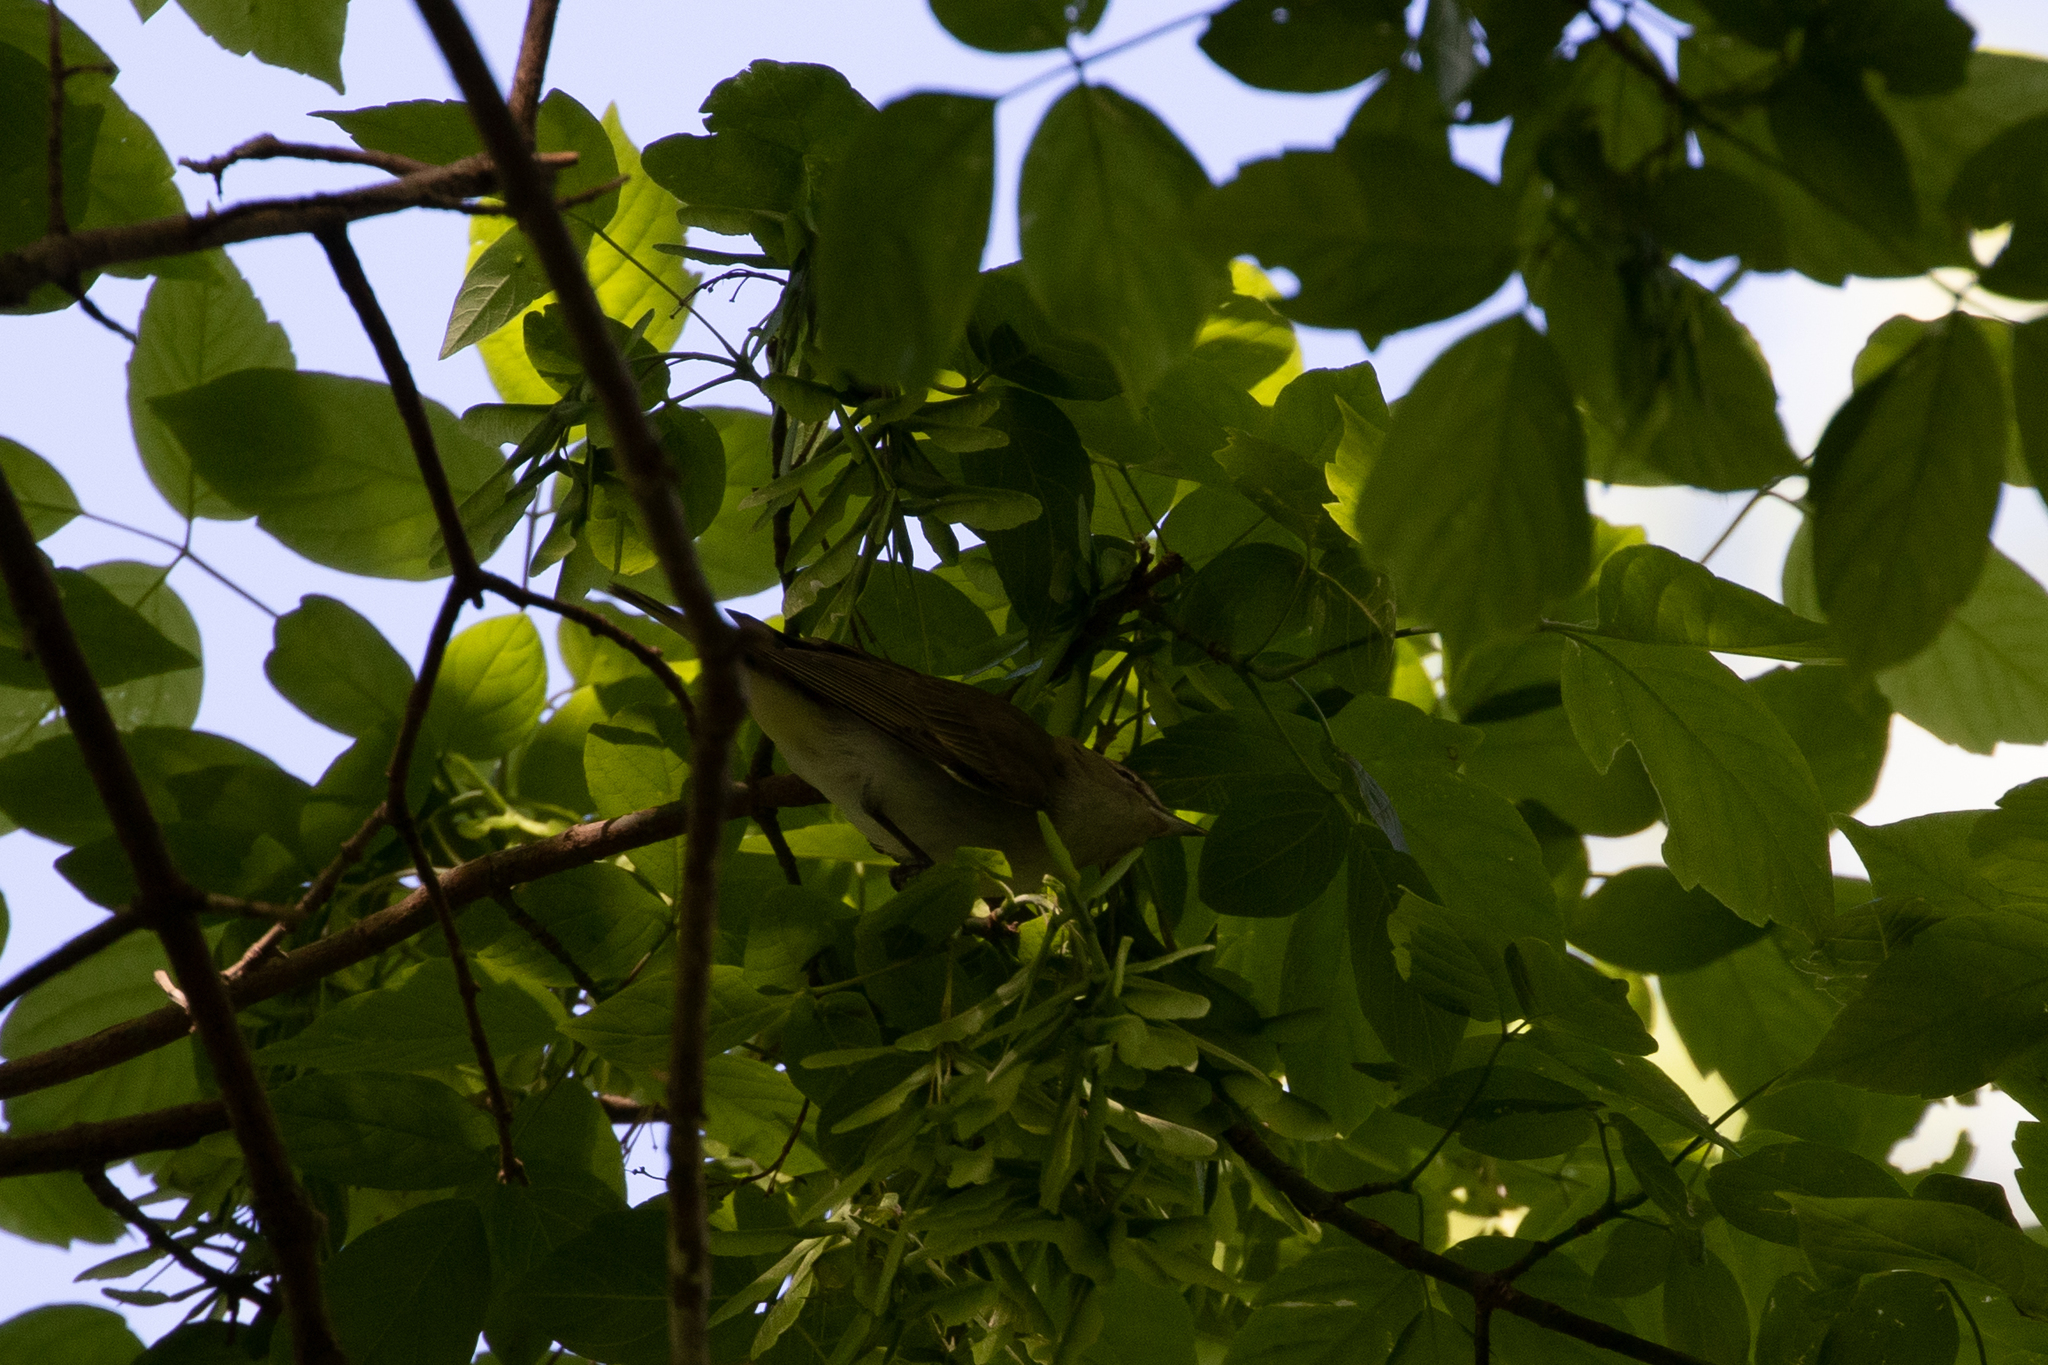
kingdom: Animalia
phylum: Chordata
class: Aves
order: Passeriformes
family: Vireonidae
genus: Vireo
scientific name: Vireo olivaceus
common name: Red-eyed vireo
